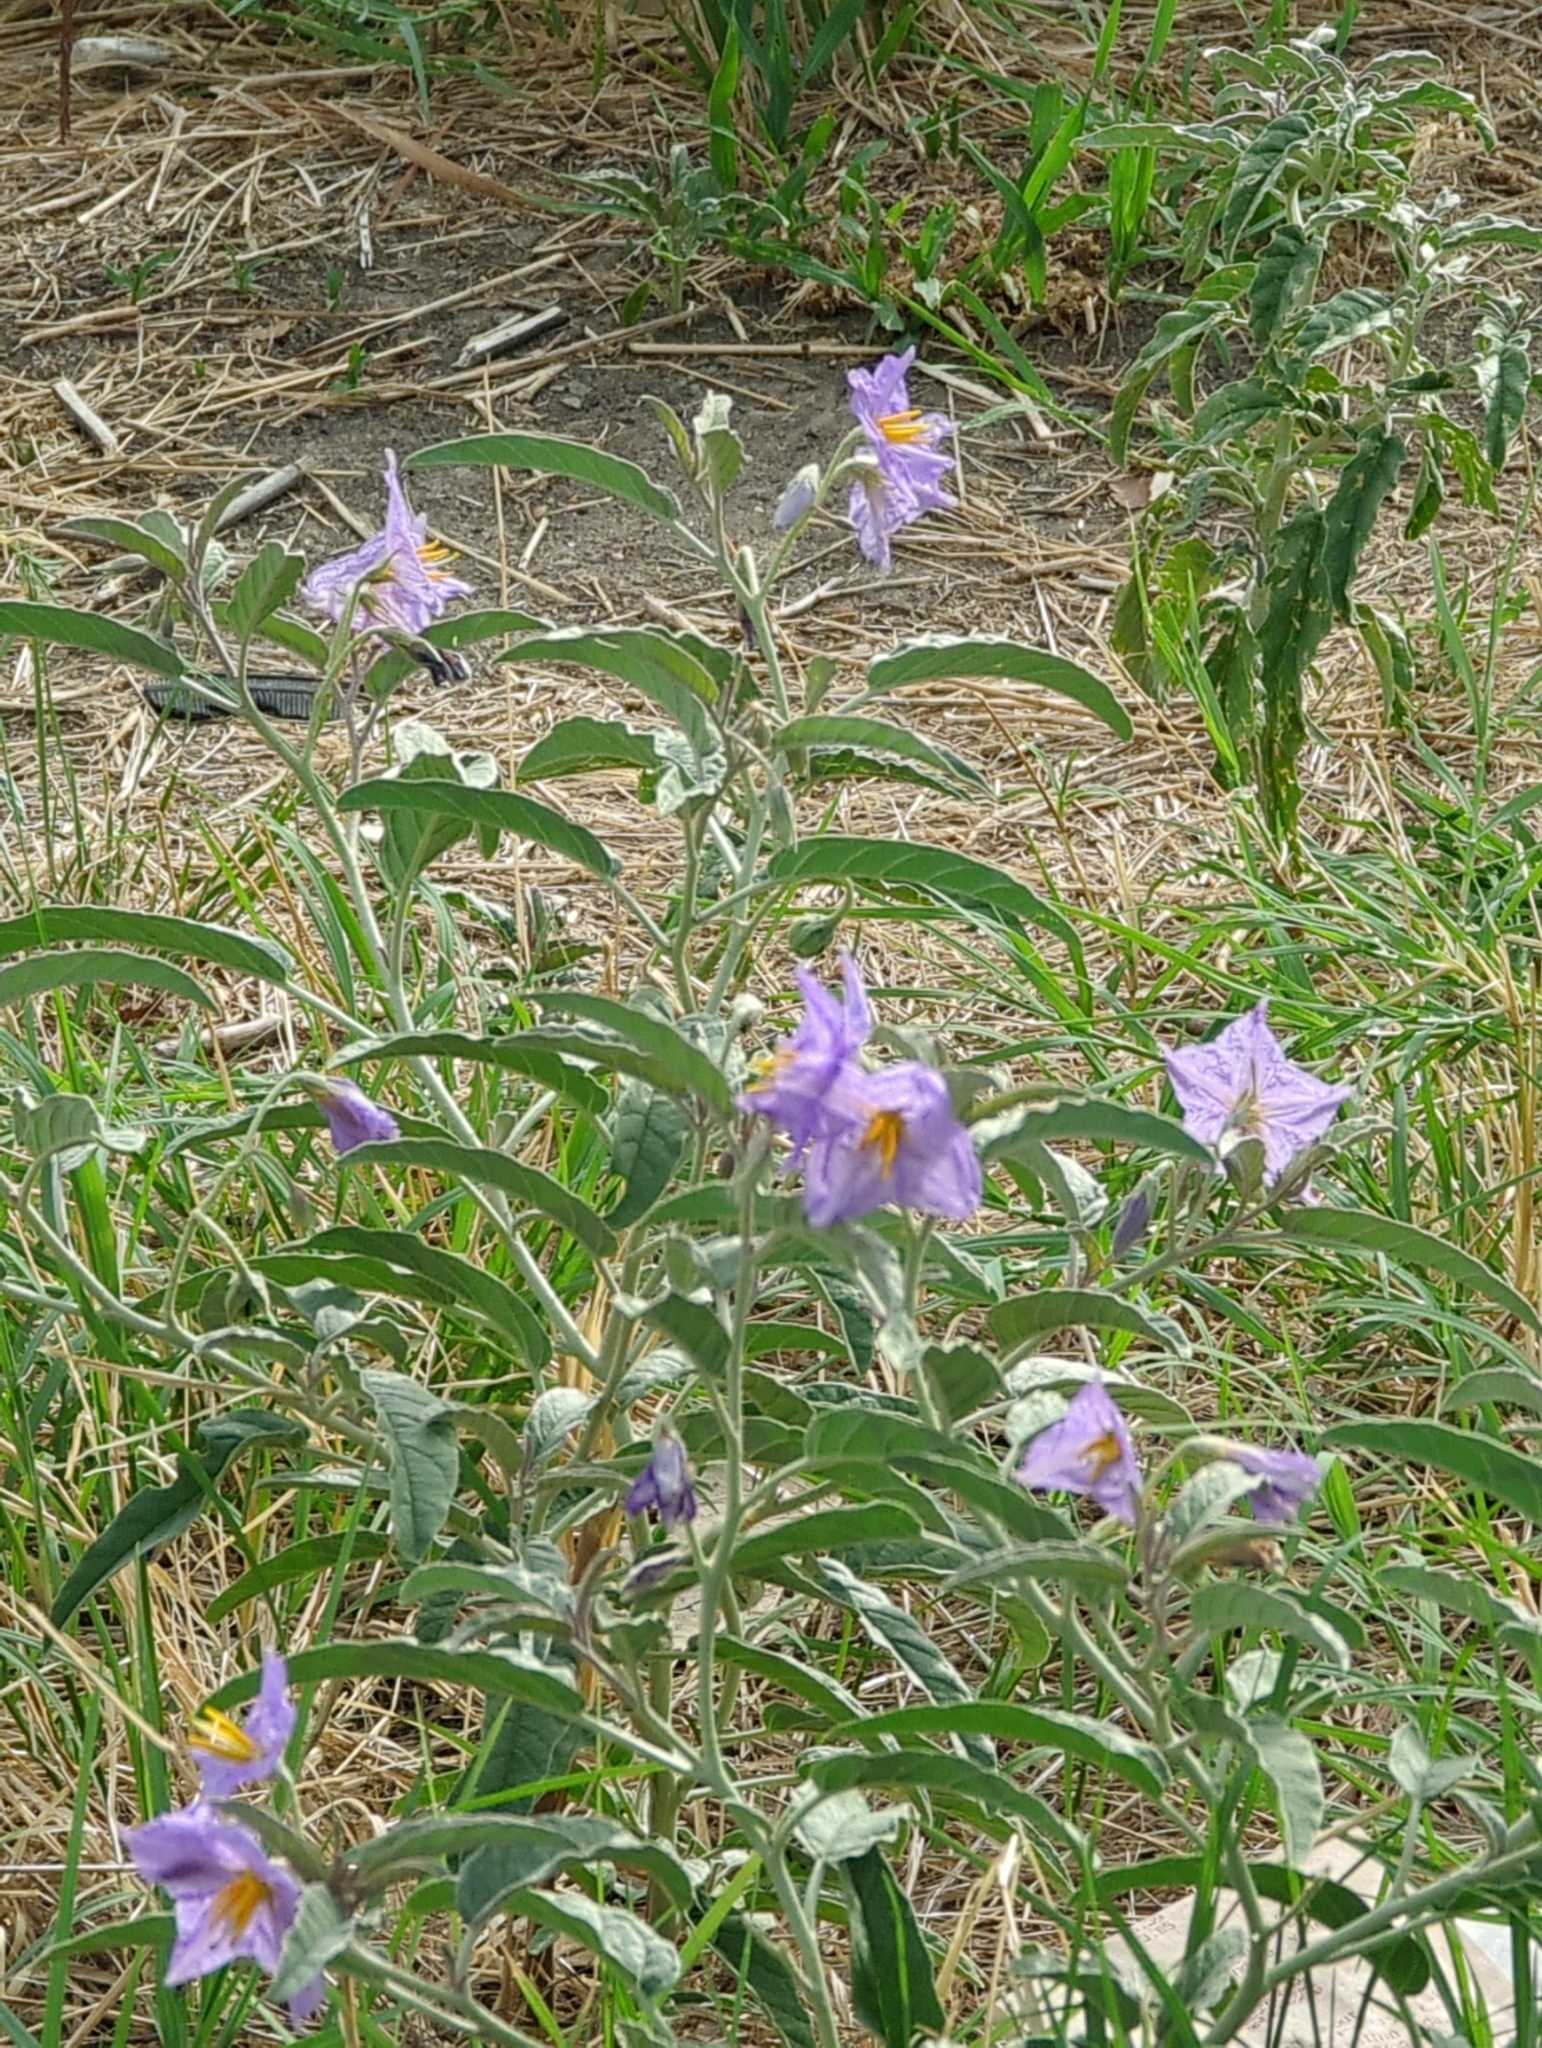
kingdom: Plantae
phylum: Tracheophyta
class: Magnoliopsida
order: Solanales
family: Solanaceae
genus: Solanum
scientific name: Solanum elaeagnifolium
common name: Silverleaf nightshade
